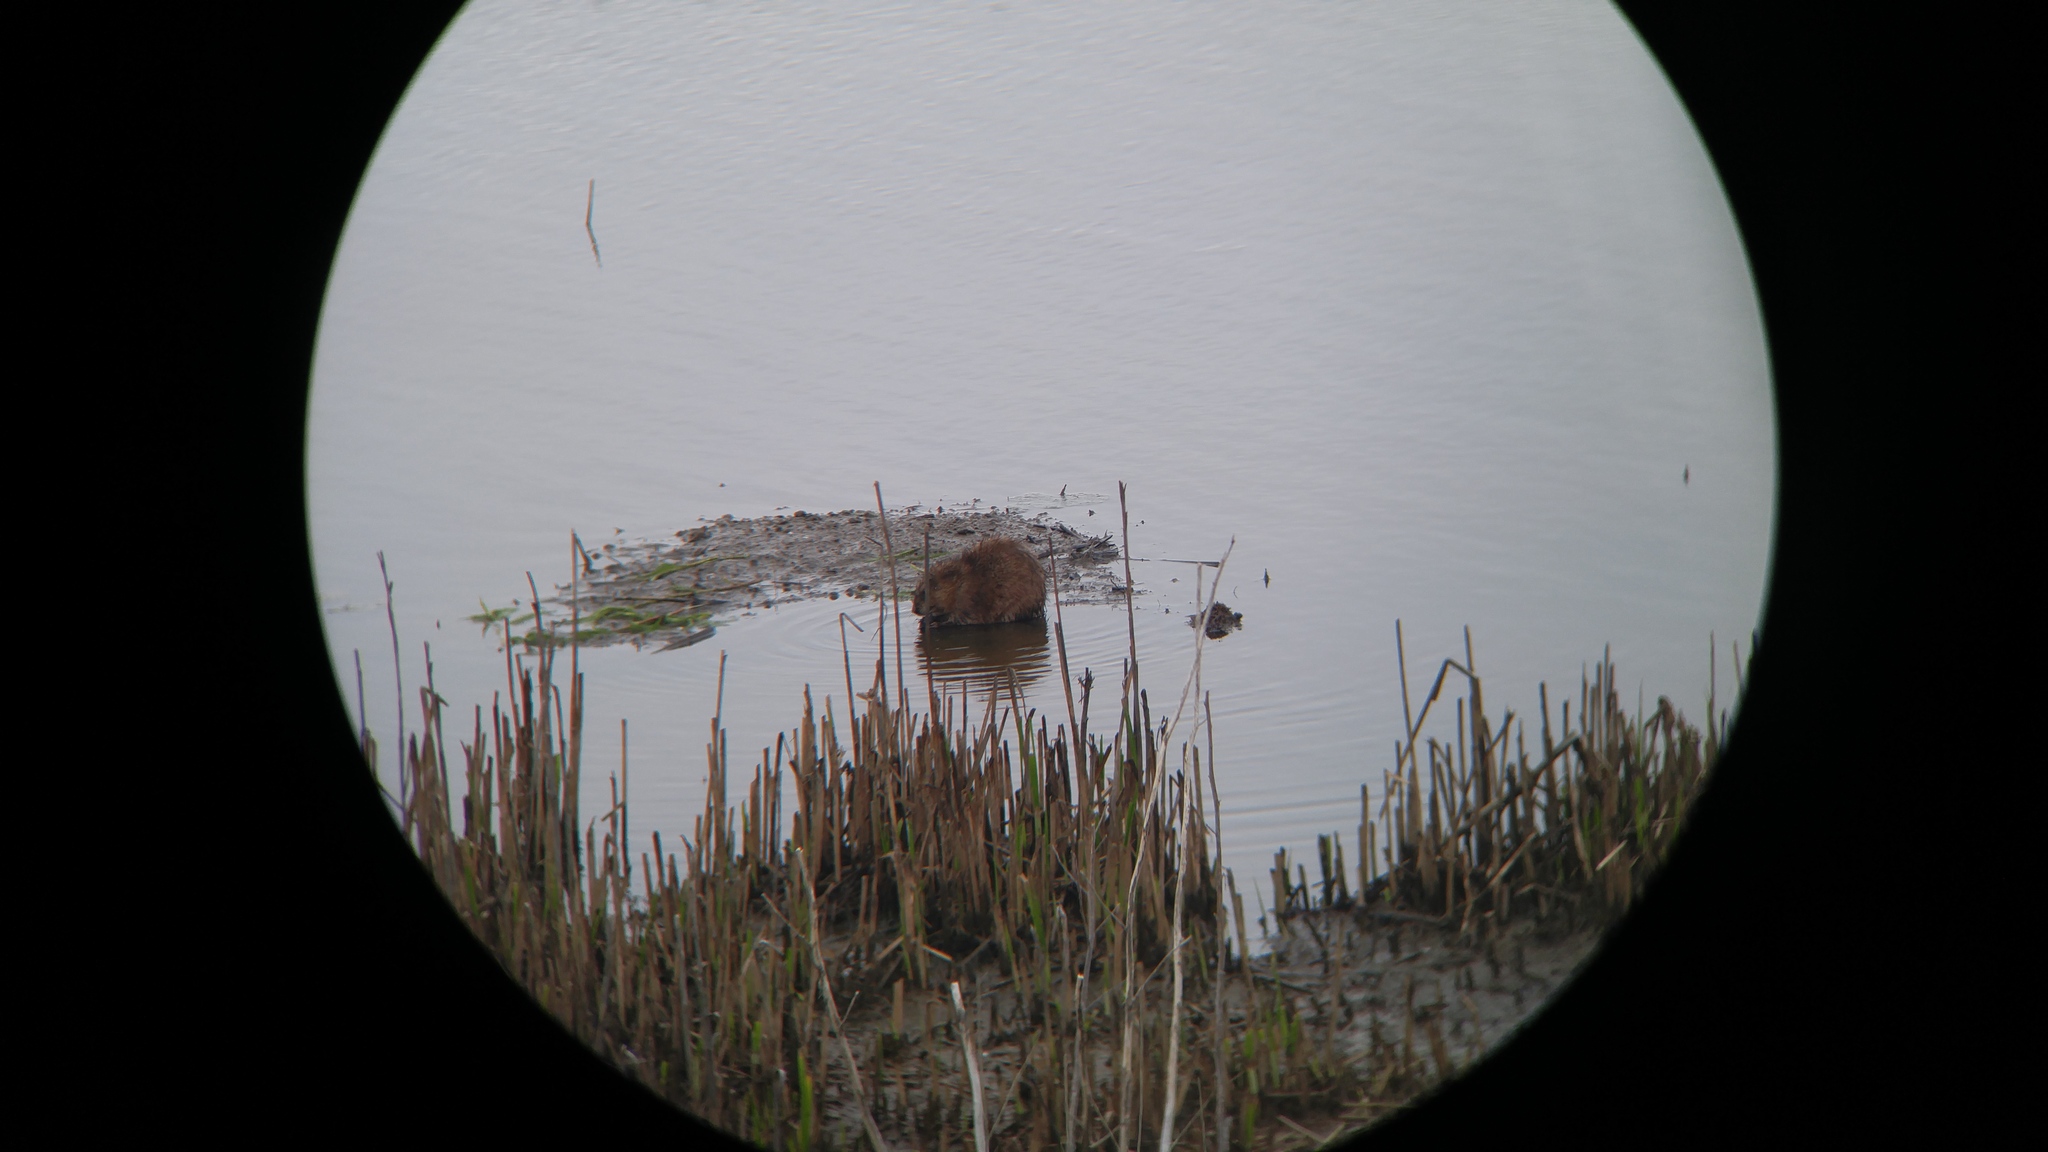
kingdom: Animalia
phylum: Chordata
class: Mammalia
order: Rodentia
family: Cricetidae
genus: Ondatra
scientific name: Ondatra zibethicus
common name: Muskrat
